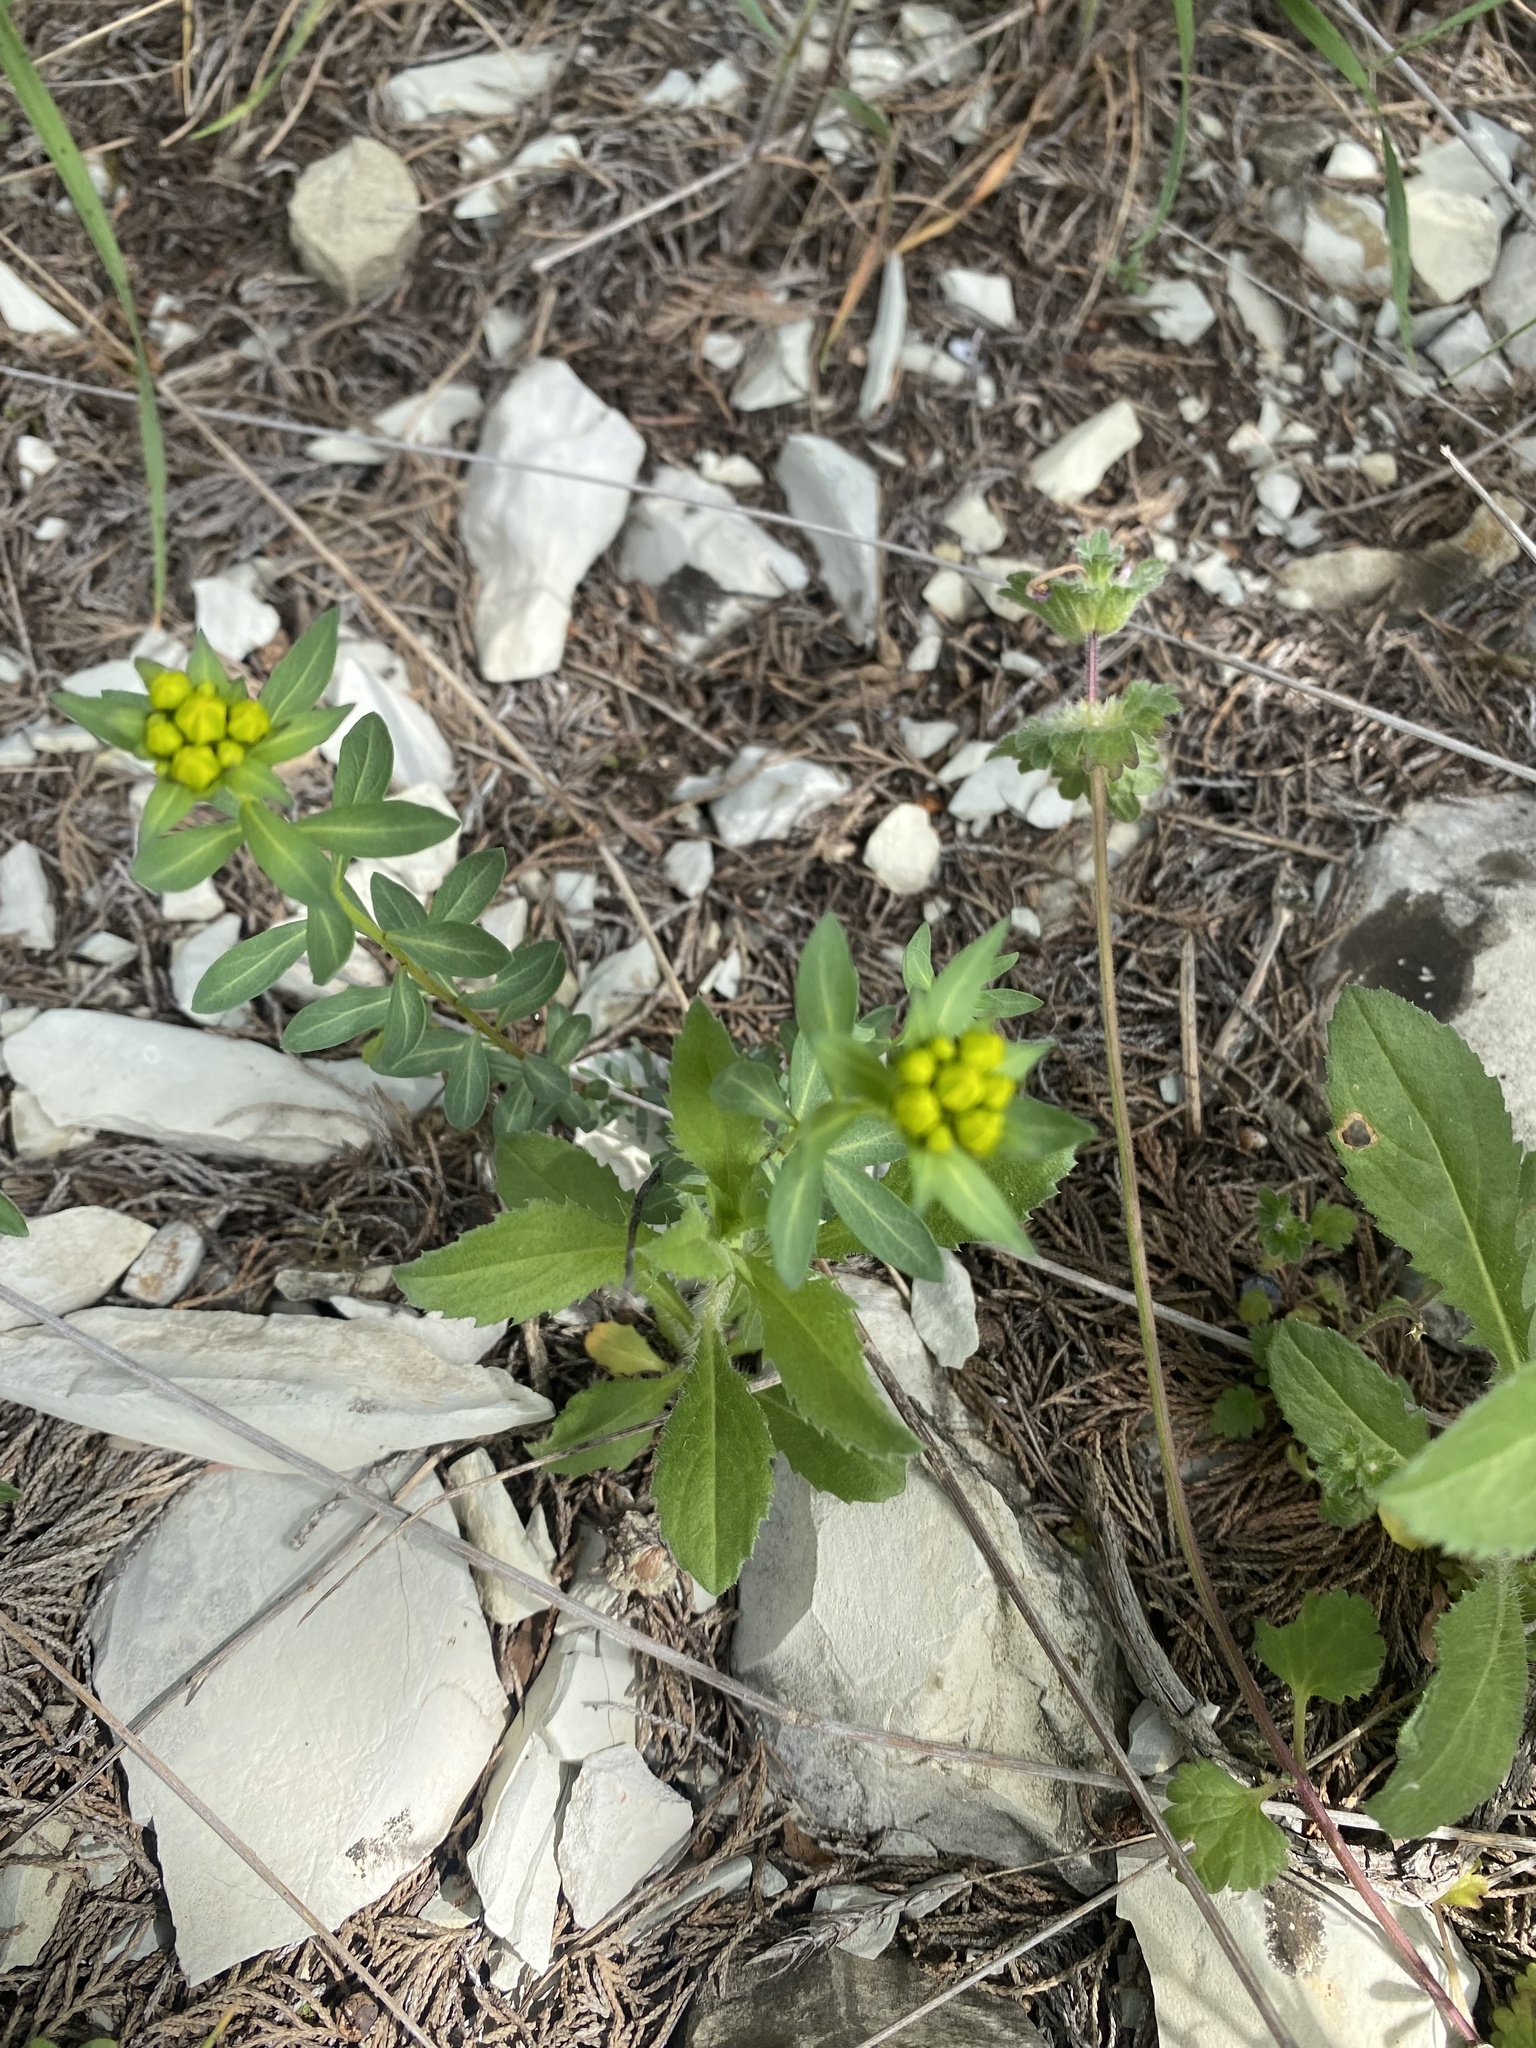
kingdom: Plantae
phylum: Tracheophyta
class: Magnoliopsida
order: Malpighiales
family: Euphorbiaceae
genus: Euphorbia
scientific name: Euphorbia iberica
